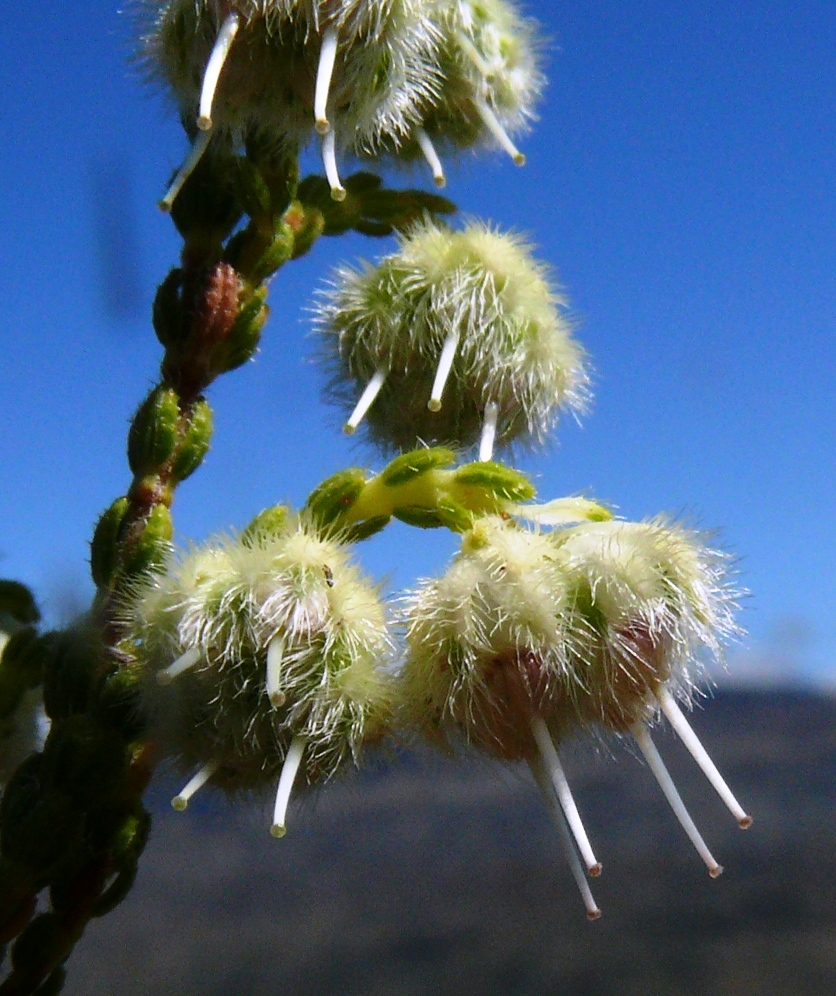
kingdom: Plantae
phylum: Tracheophyta
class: Magnoliopsida
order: Ericales
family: Ericaceae
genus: Erica
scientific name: Erica senilis
